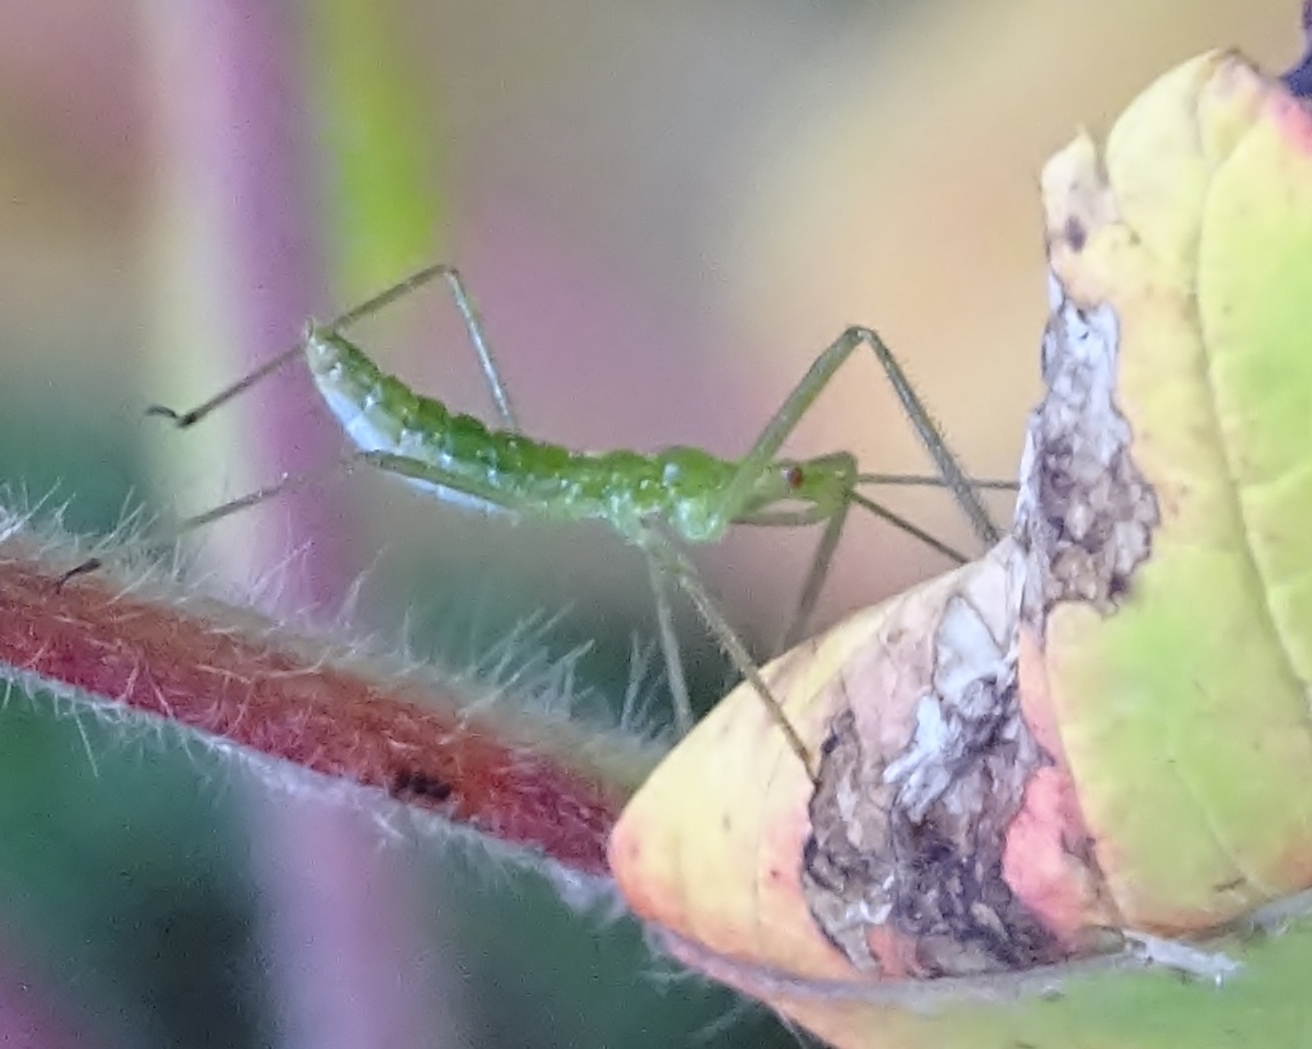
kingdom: Animalia
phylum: Arthropoda
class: Insecta
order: Hemiptera
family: Reduviidae
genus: Zelus
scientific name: Zelus luridus
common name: Pale green assassin bug
